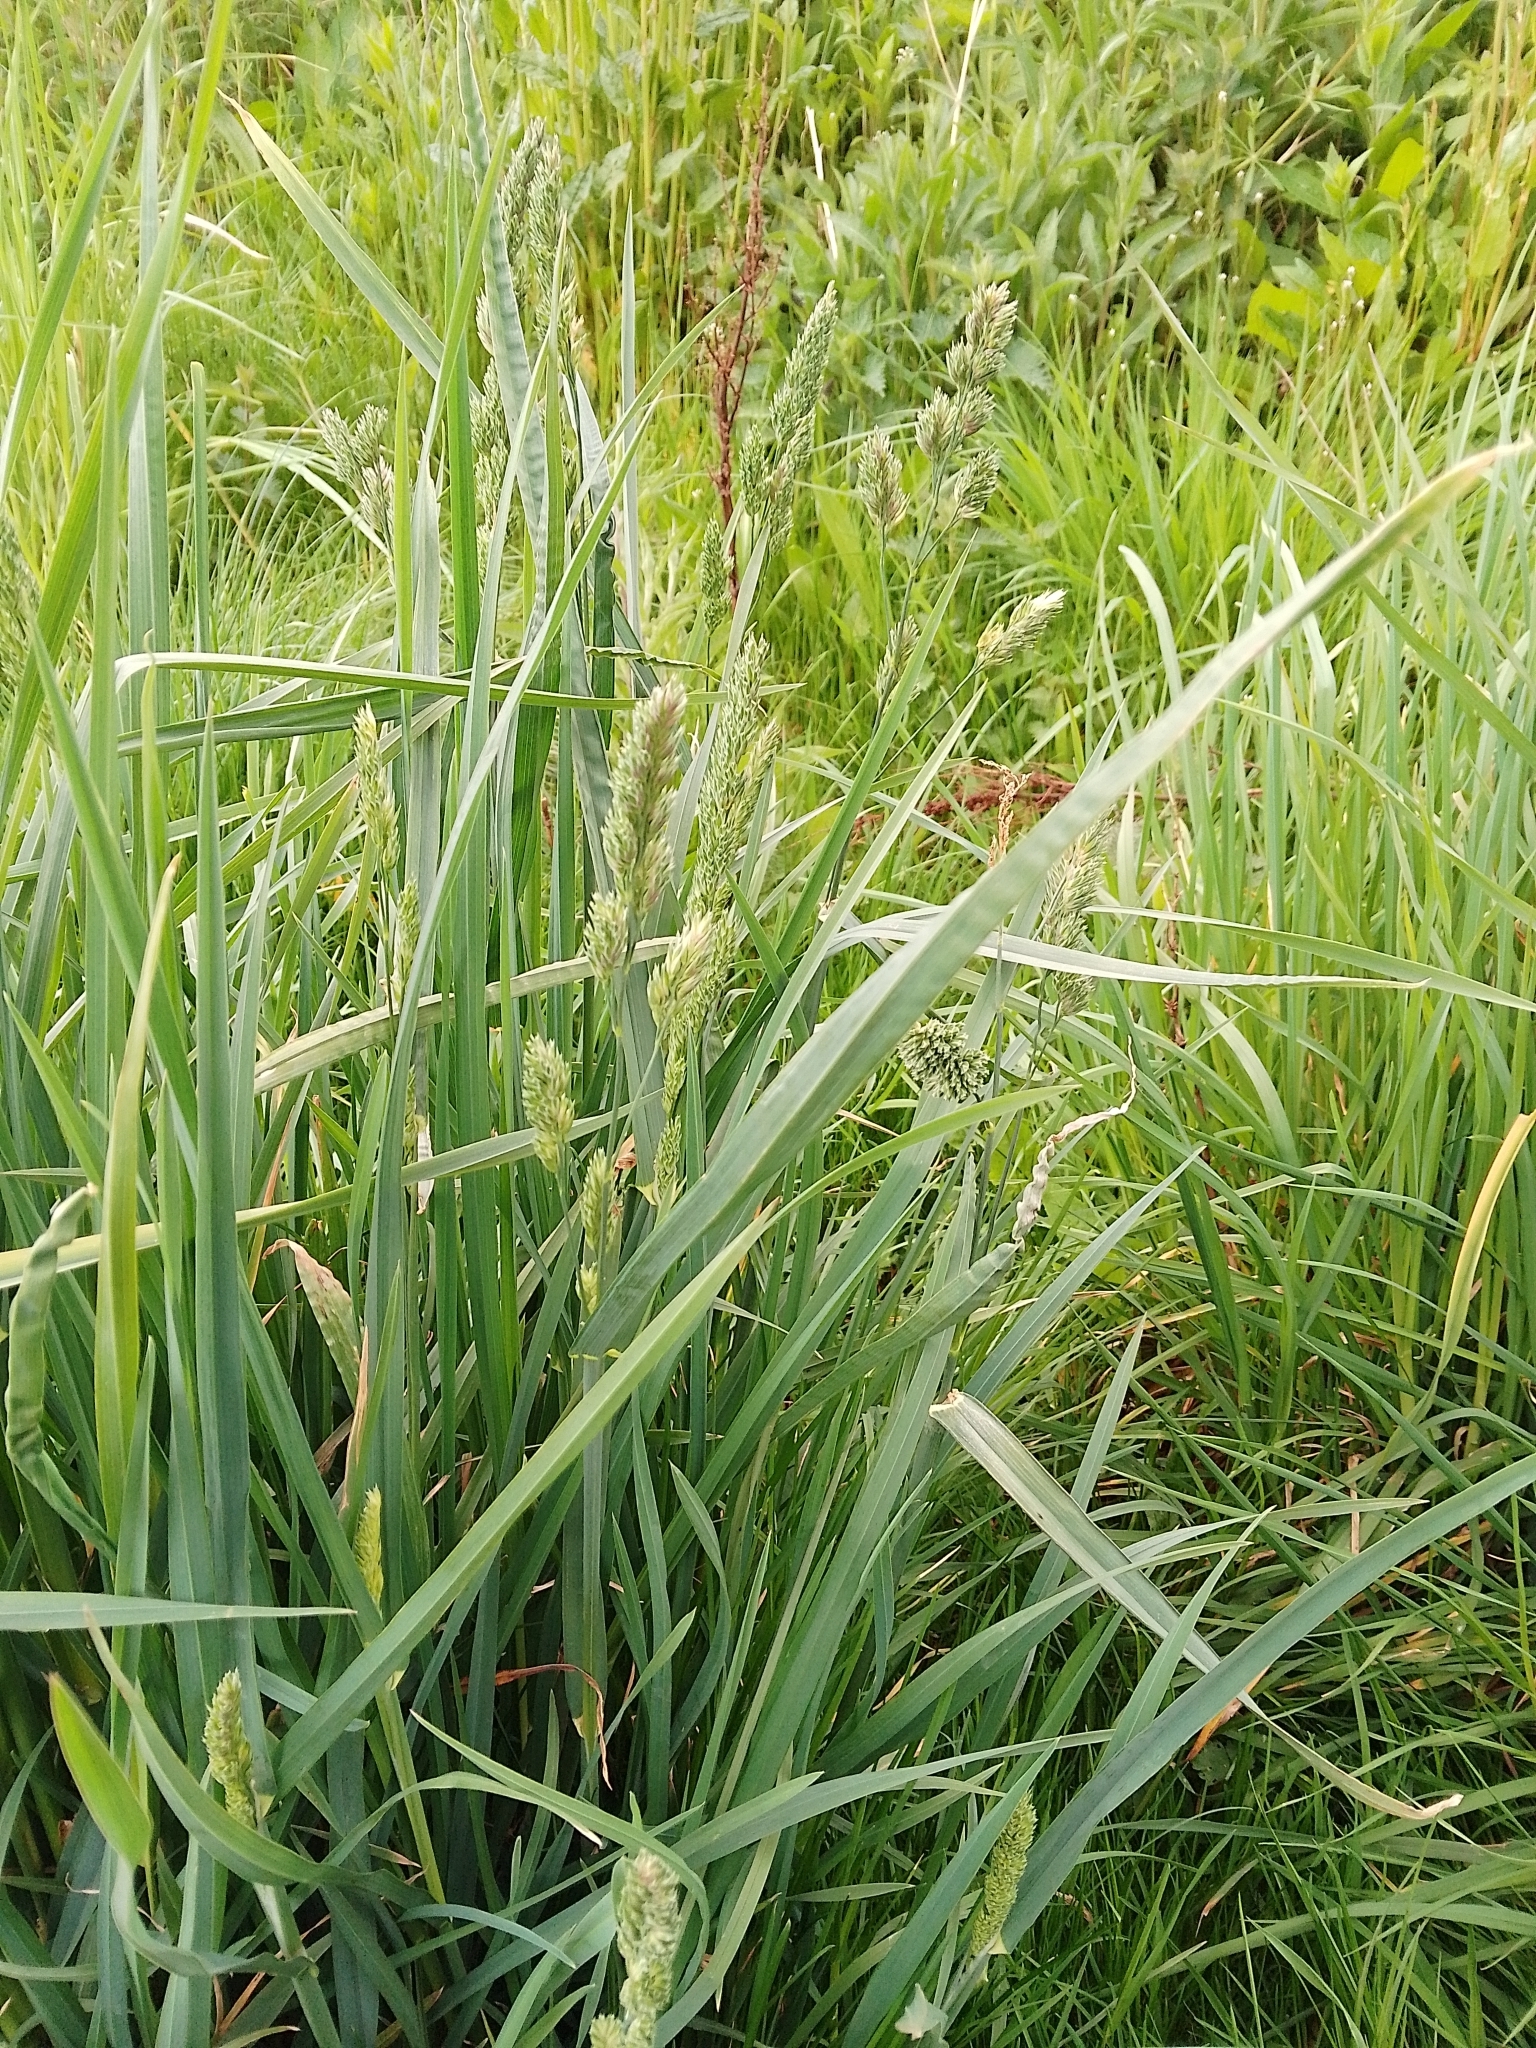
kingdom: Plantae
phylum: Tracheophyta
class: Liliopsida
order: Poales
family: Poaceae
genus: Dactylis
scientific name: Dactylis glomerata
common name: Orchardgrass
